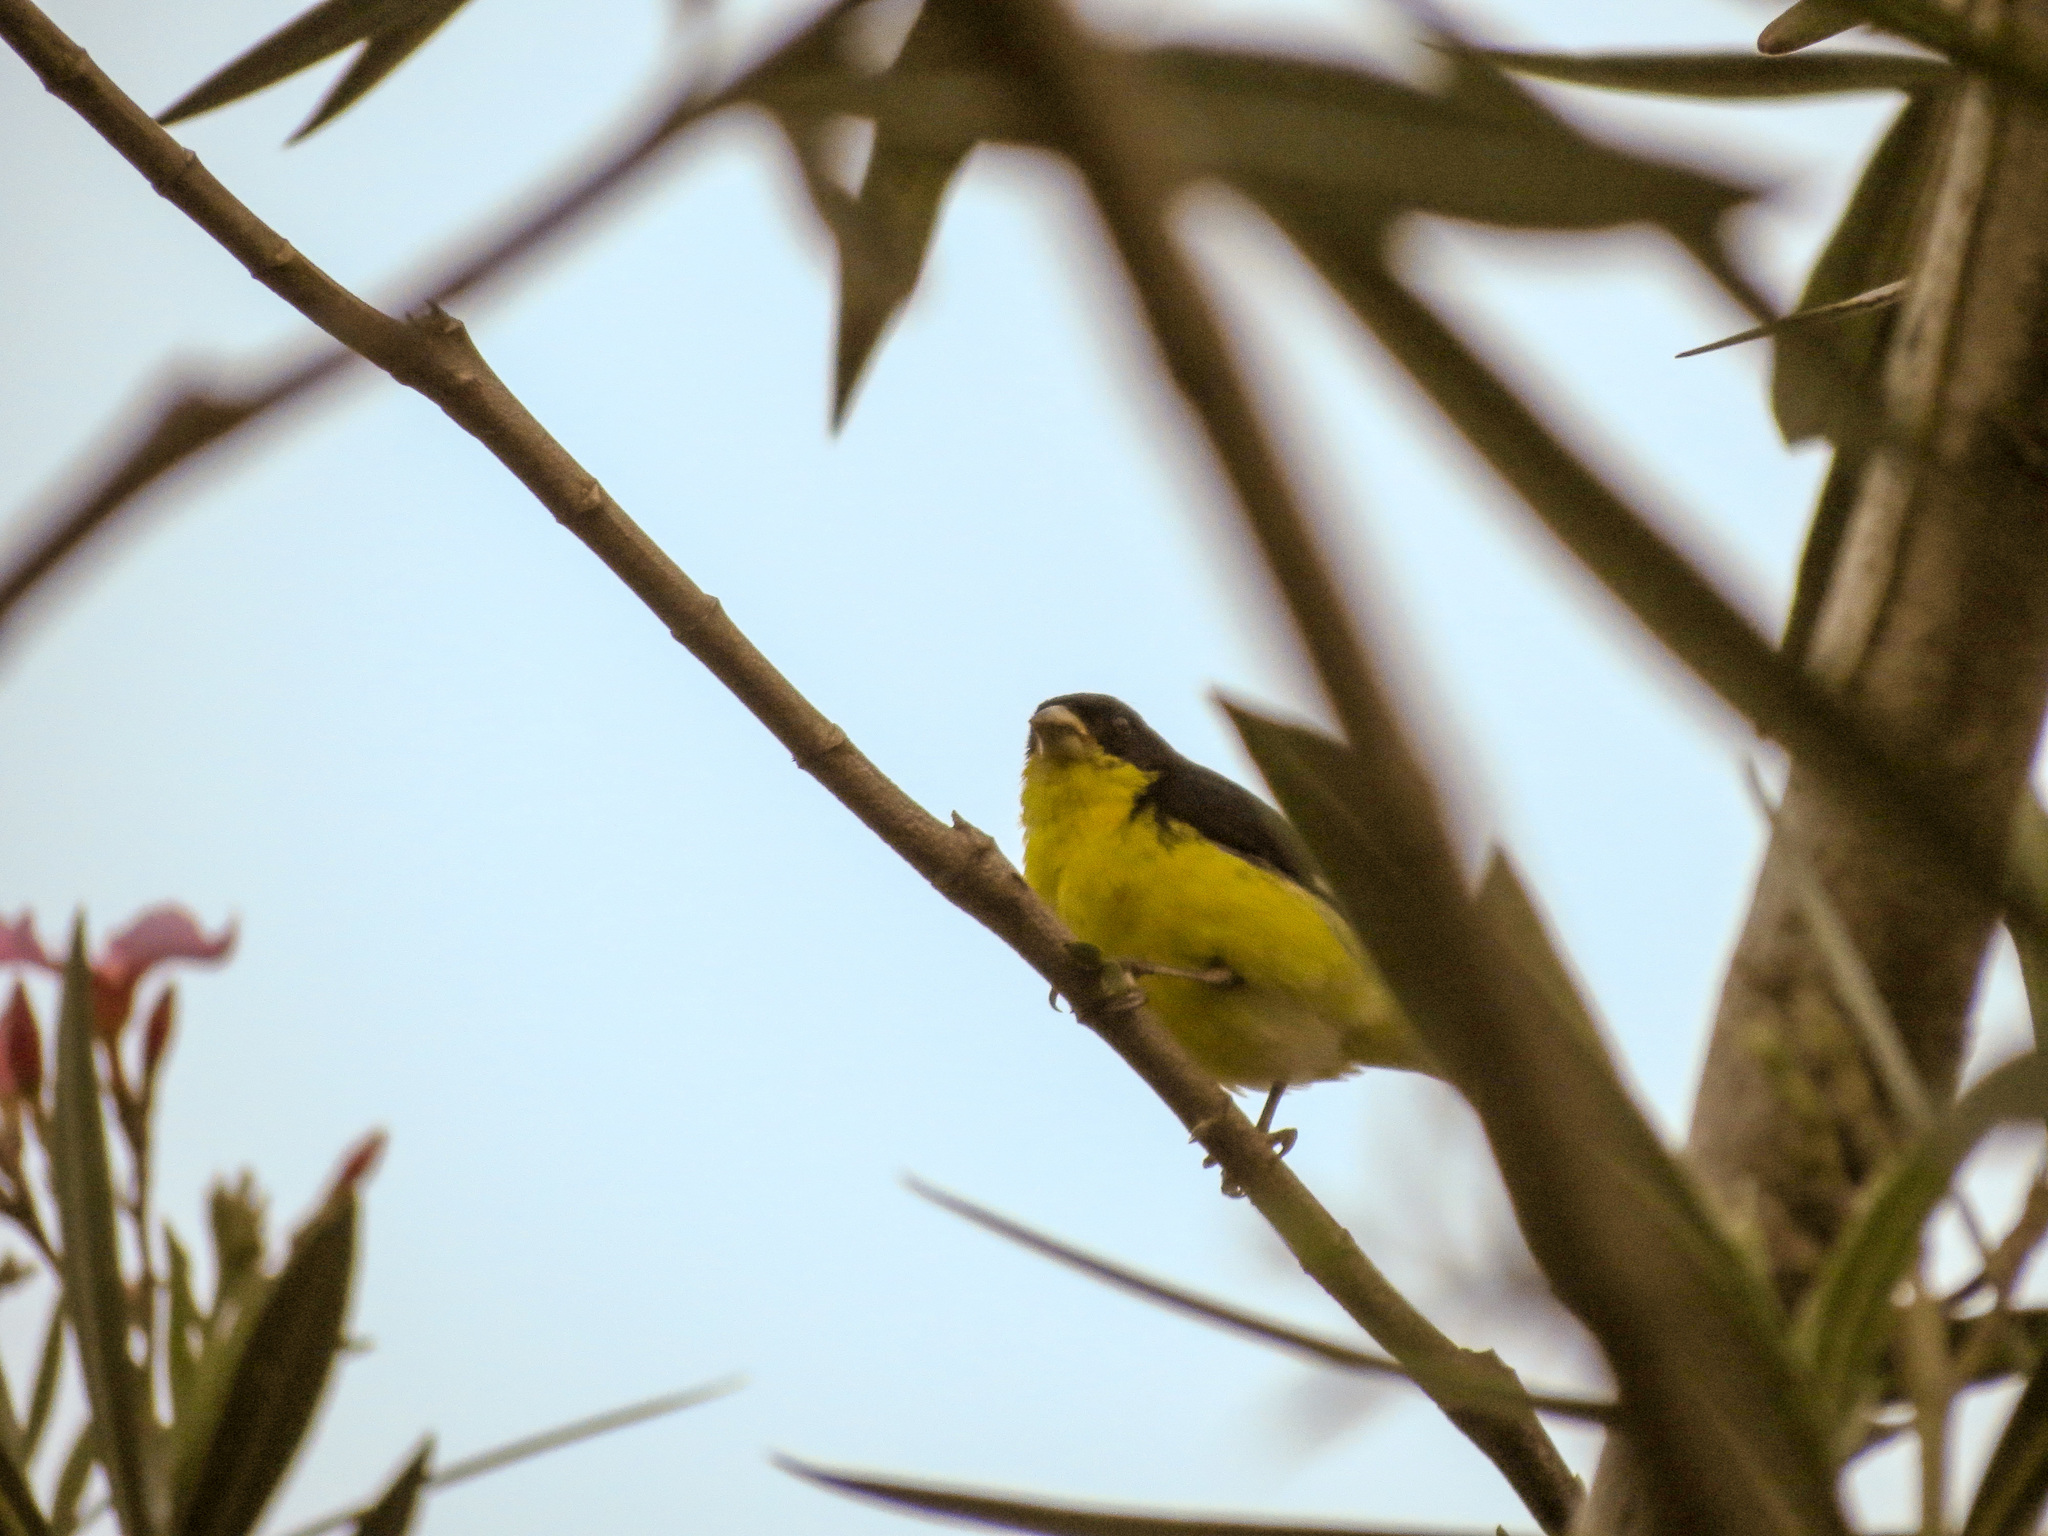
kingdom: Animalia
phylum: Chordata
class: Aves
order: Passeriformes
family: Fringillidae
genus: Spinus
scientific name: Spinus psaltria
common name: Lesser goldfinch
